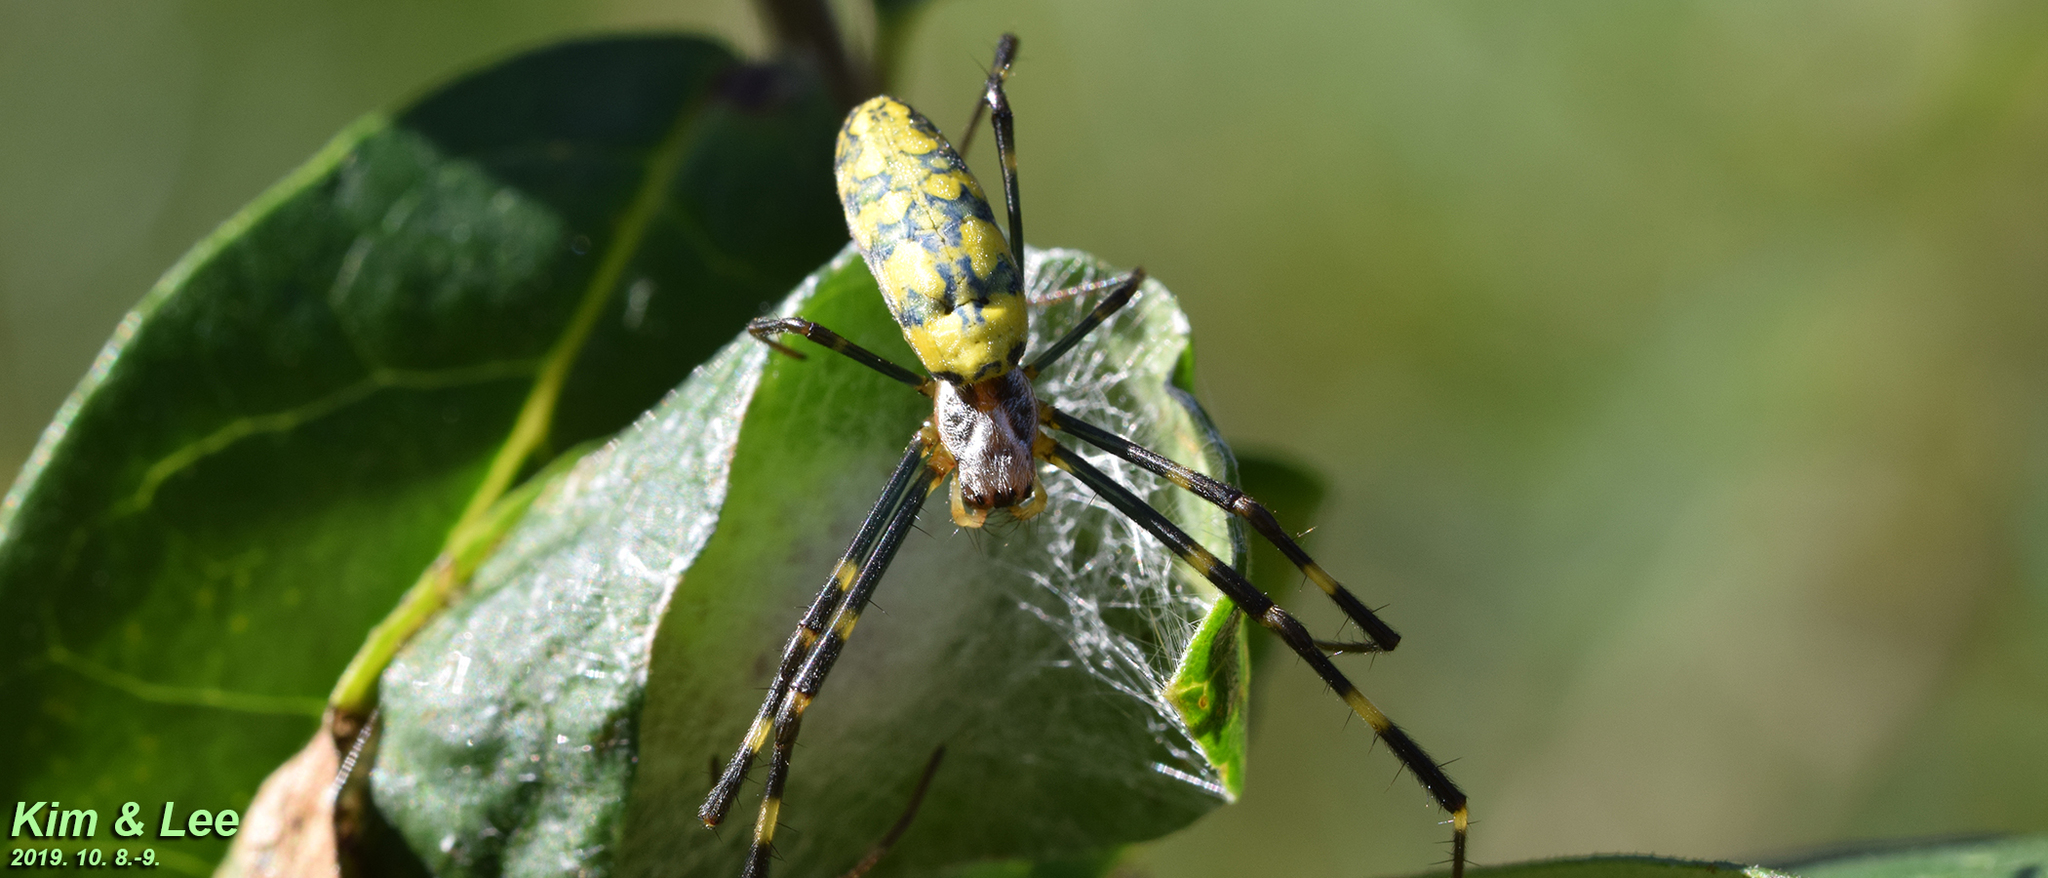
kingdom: Animalia
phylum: Arthropoda
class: Arachnida
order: Araneae
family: Araneidae
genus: Trichonephila
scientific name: Trichonephila clavata
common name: Jorō spider
